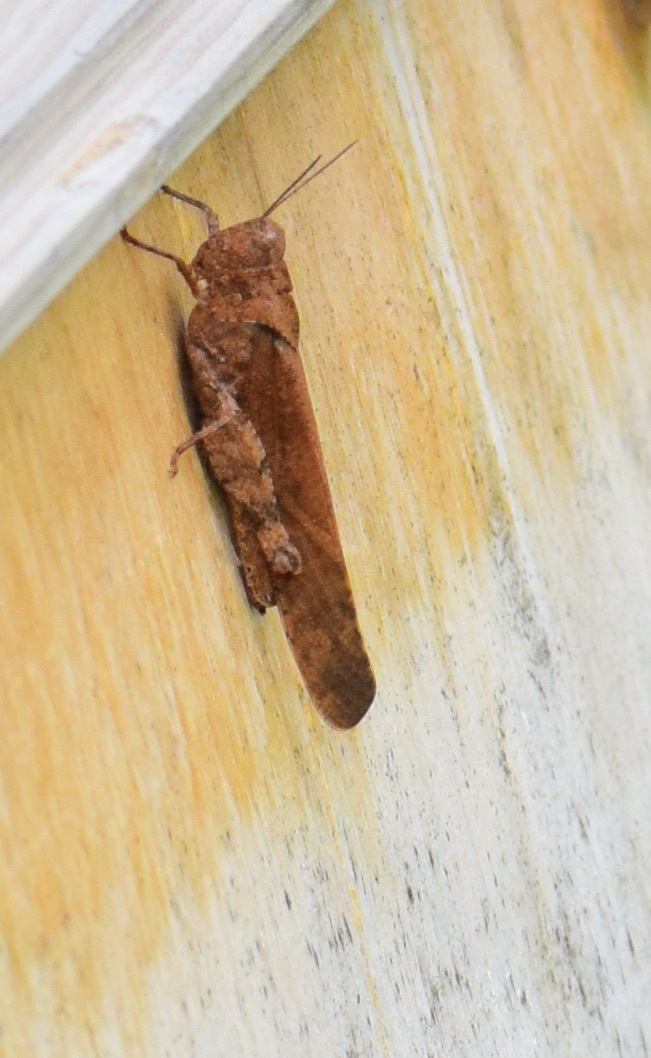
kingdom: Animalia
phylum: Arthropoda
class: Insecta
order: Orthoptera
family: Acrididae
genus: Dissosteira
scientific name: Dissosteira carolina
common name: Carolina grasshopper
